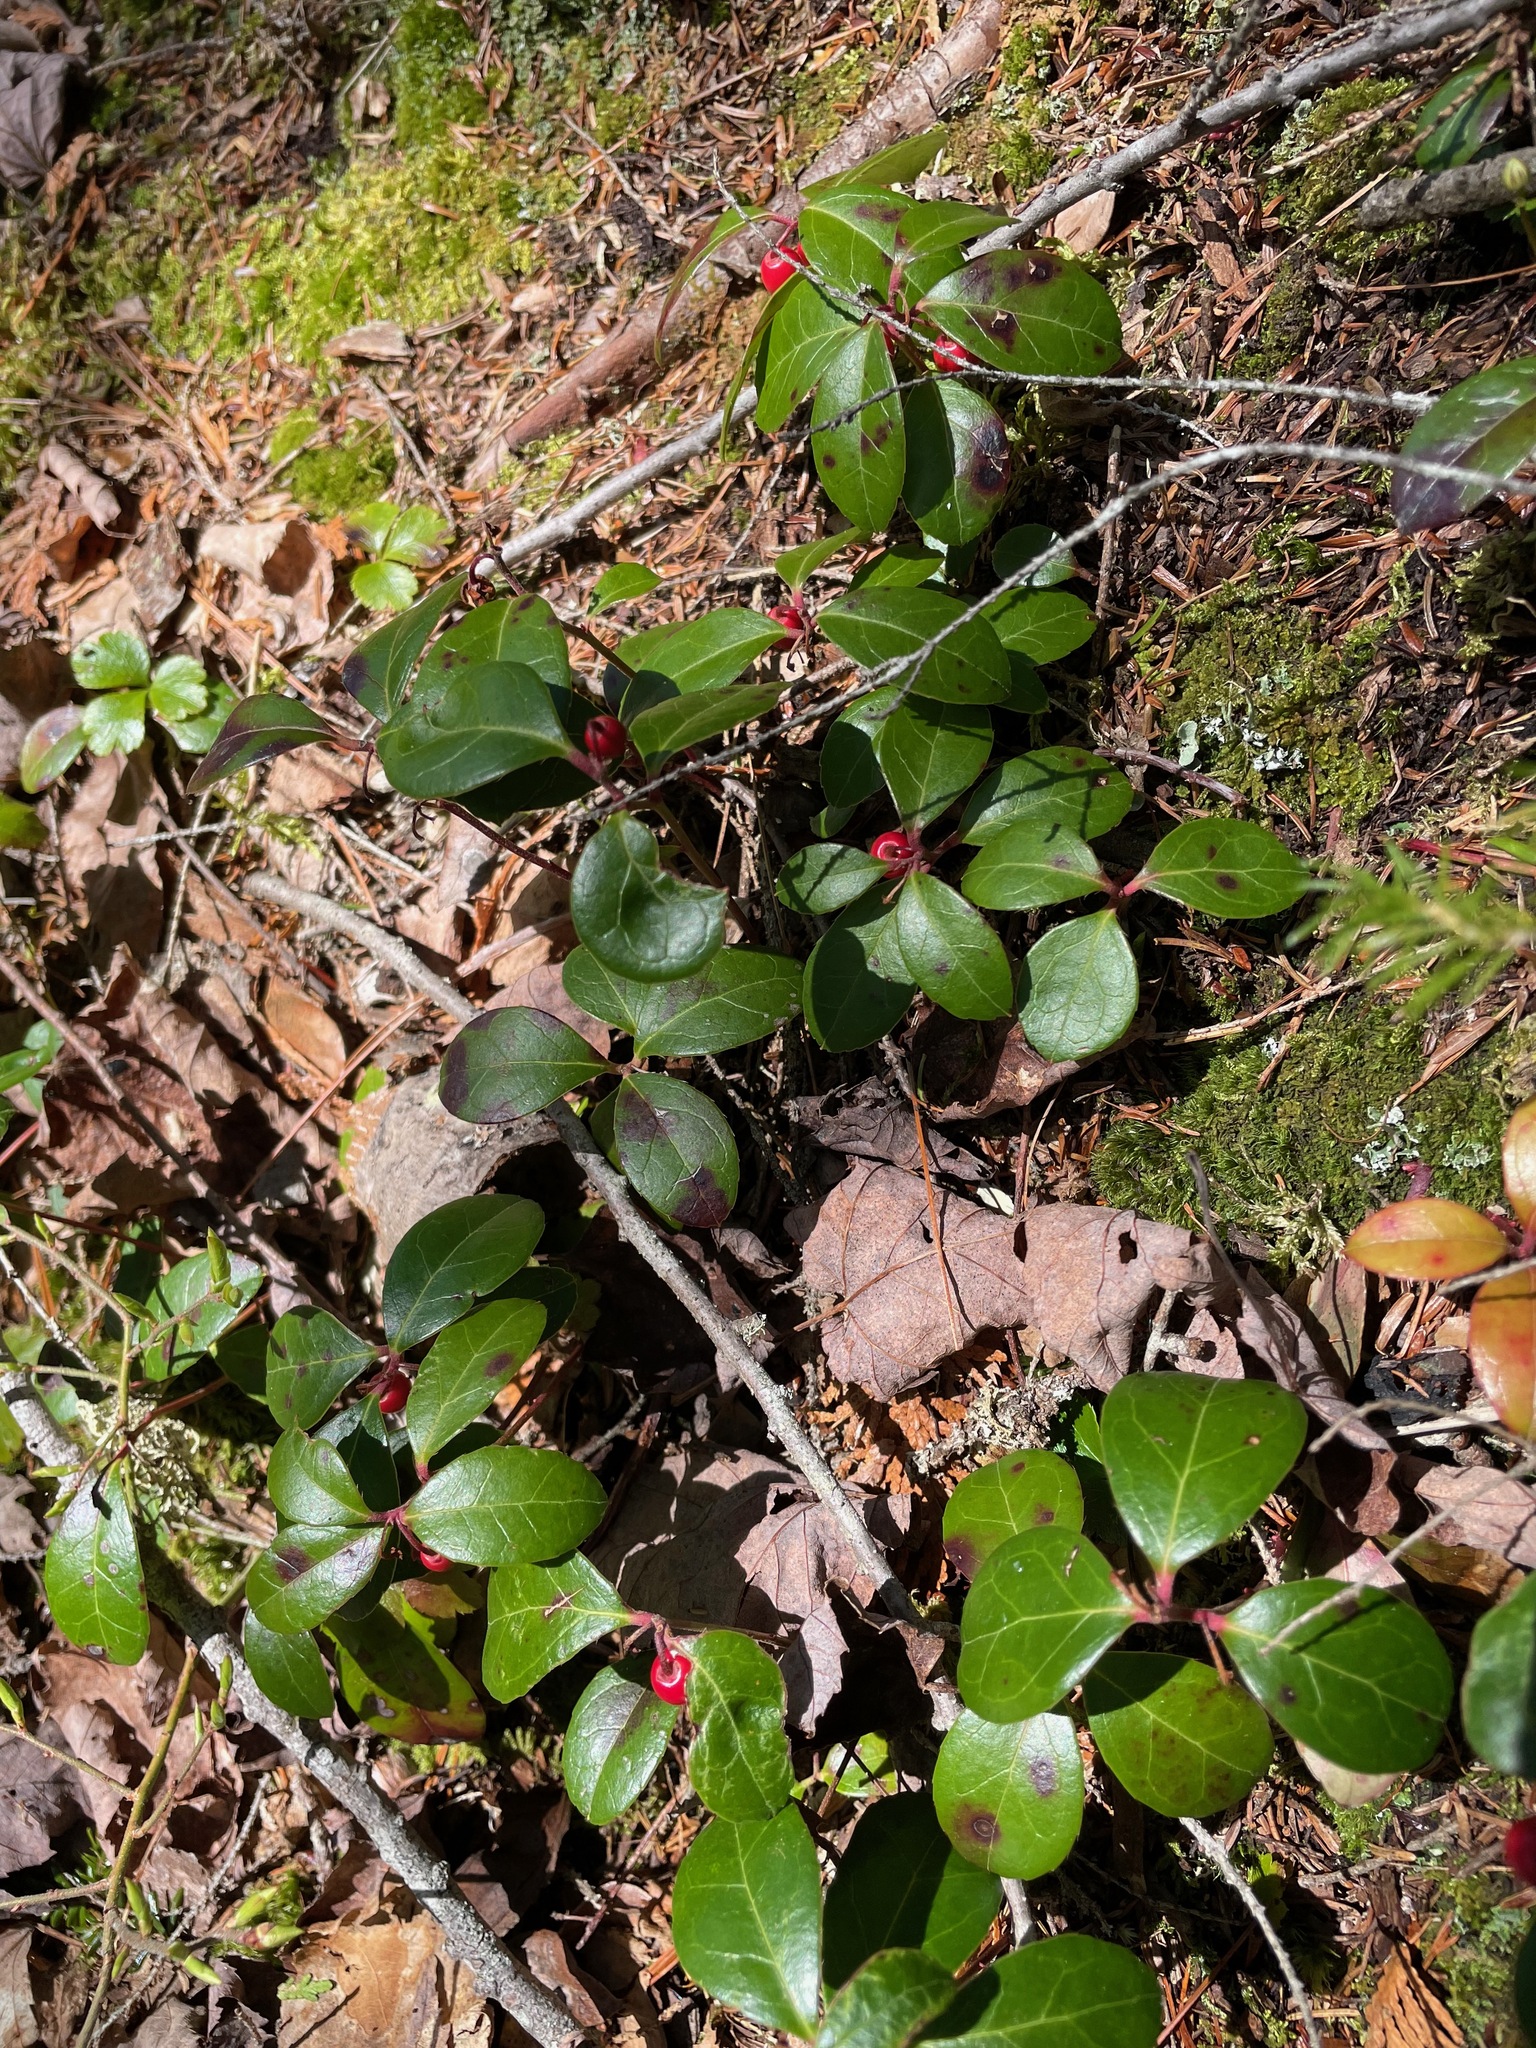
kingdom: Plantae
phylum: Tracheophyta
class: Magnoliopsida
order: Ericales
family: Ericaceae
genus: Gaultheria
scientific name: Gaultheria procumbens
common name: Checkerberry
